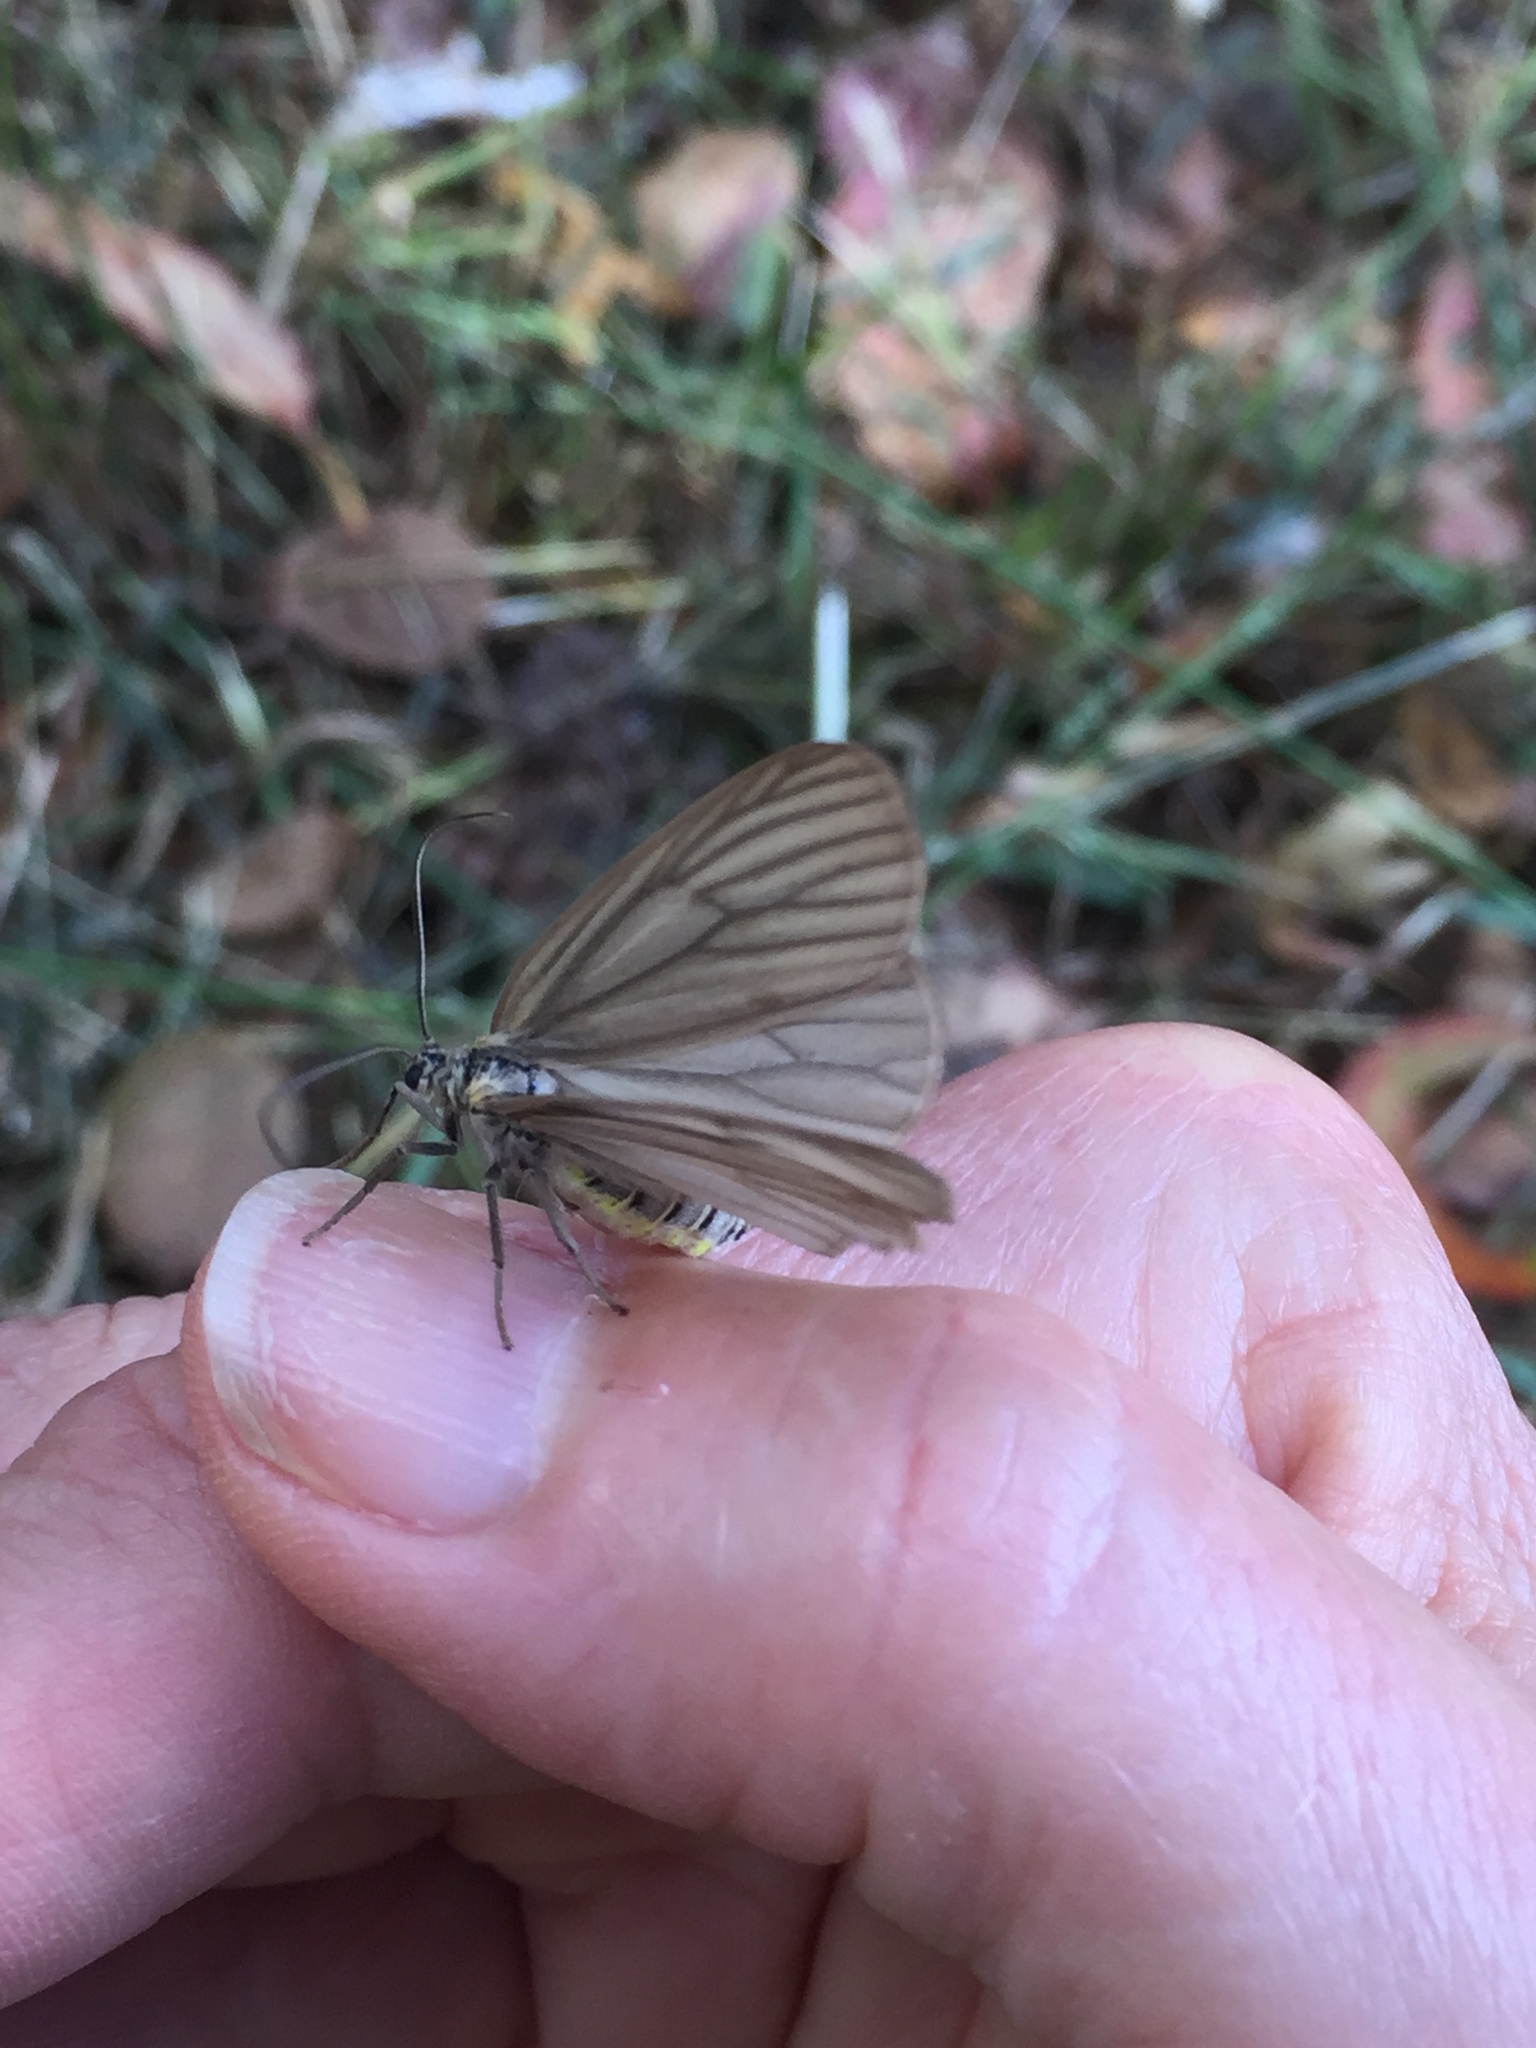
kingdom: Animalia
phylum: Arthropoda
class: Insecta
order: Lepidoptera
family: Notodontidae
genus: Phryganidia
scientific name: Phryganidia californica
